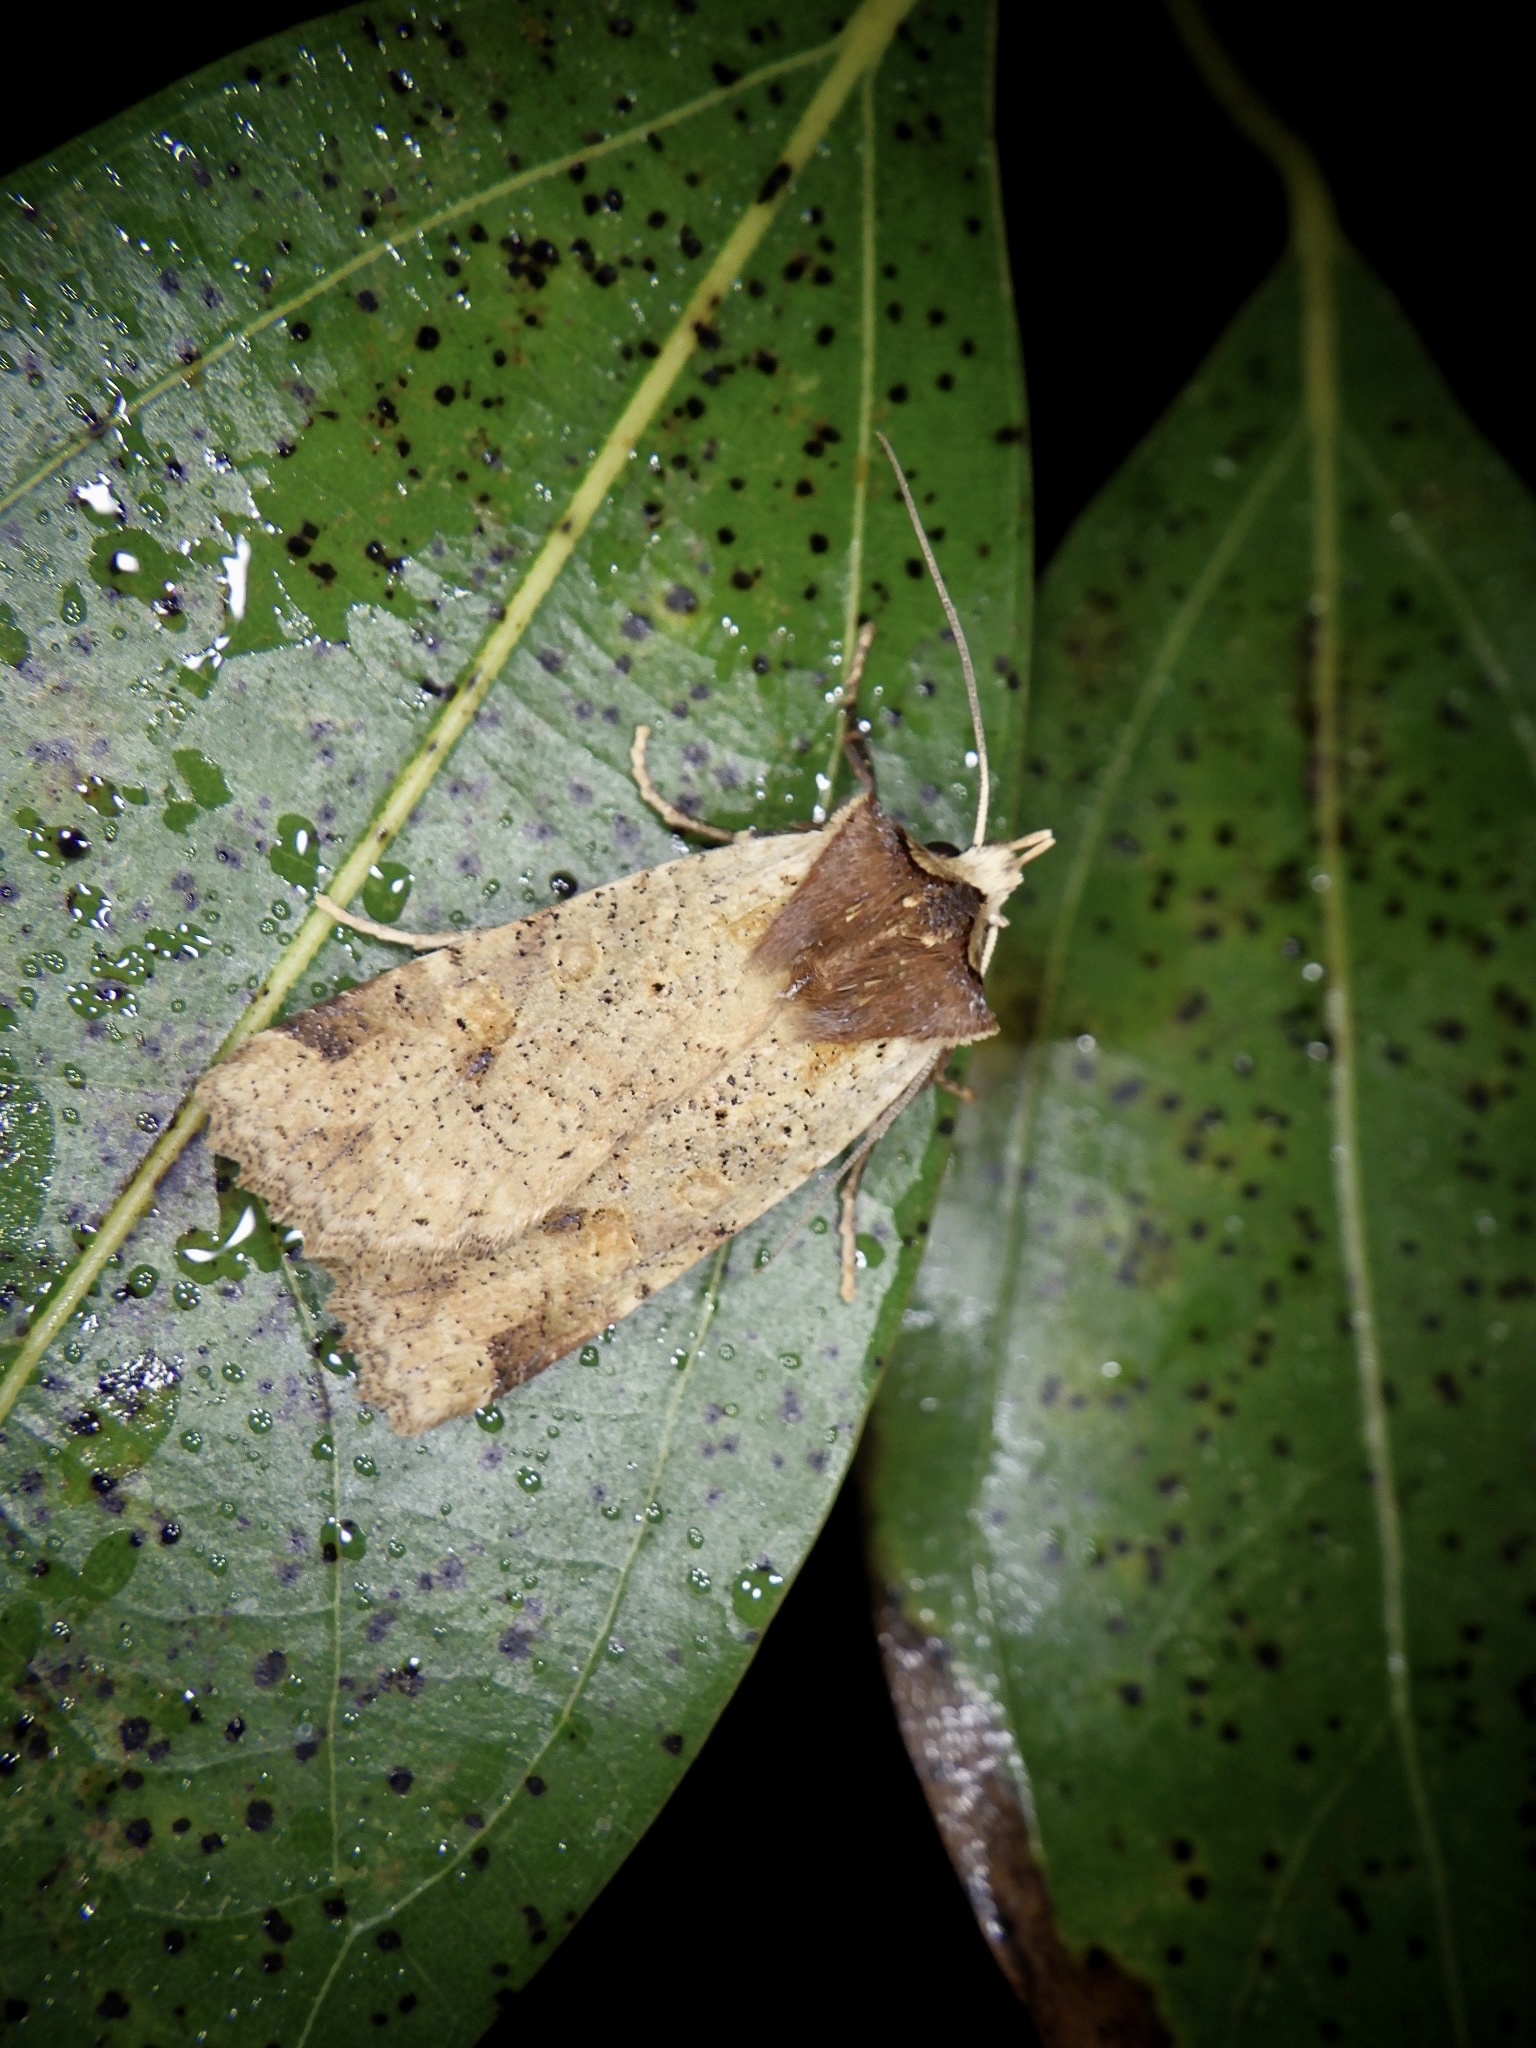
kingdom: Animalia
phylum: Arthropoda
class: Insecta
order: Lepidoptera
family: Noctuidae
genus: Rhynchaglaea
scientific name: Rhynchaglaea scitula
